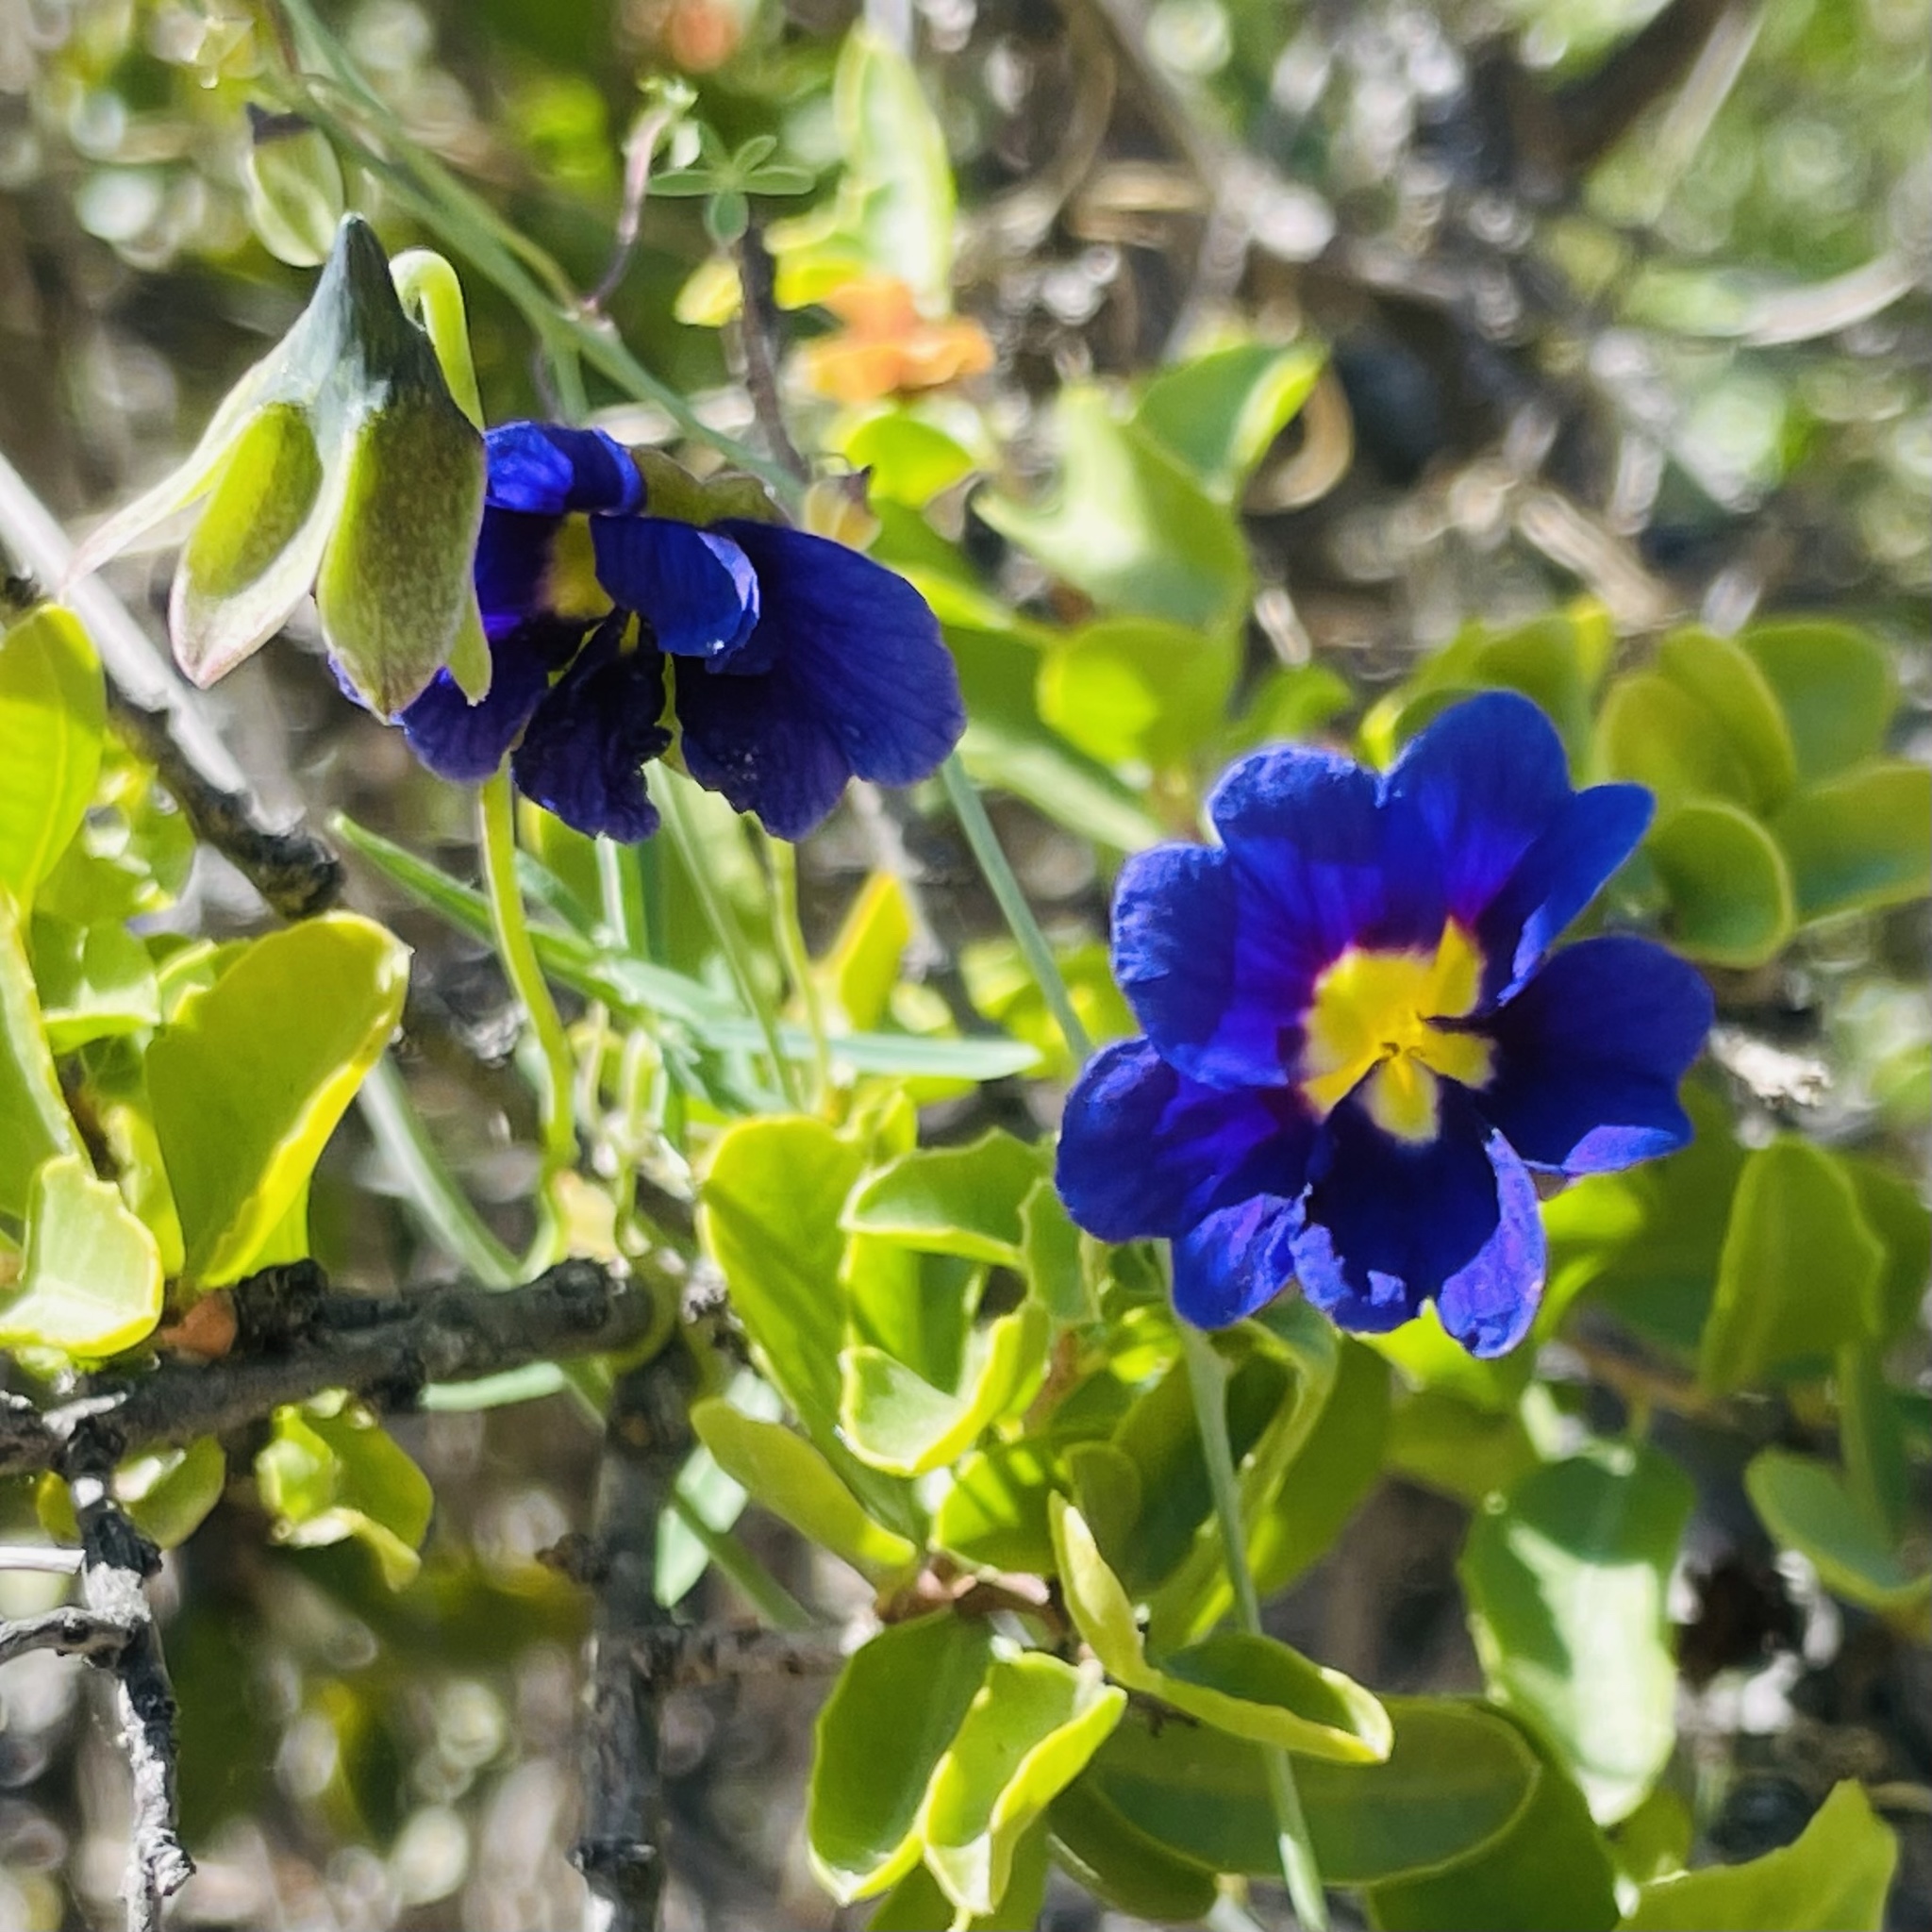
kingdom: Plantae
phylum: Tracheophyta
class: Magnoliopsida
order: Brassicales
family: Tropaeolaceae
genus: Tropaeolum
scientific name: Tropaeolum azureum
